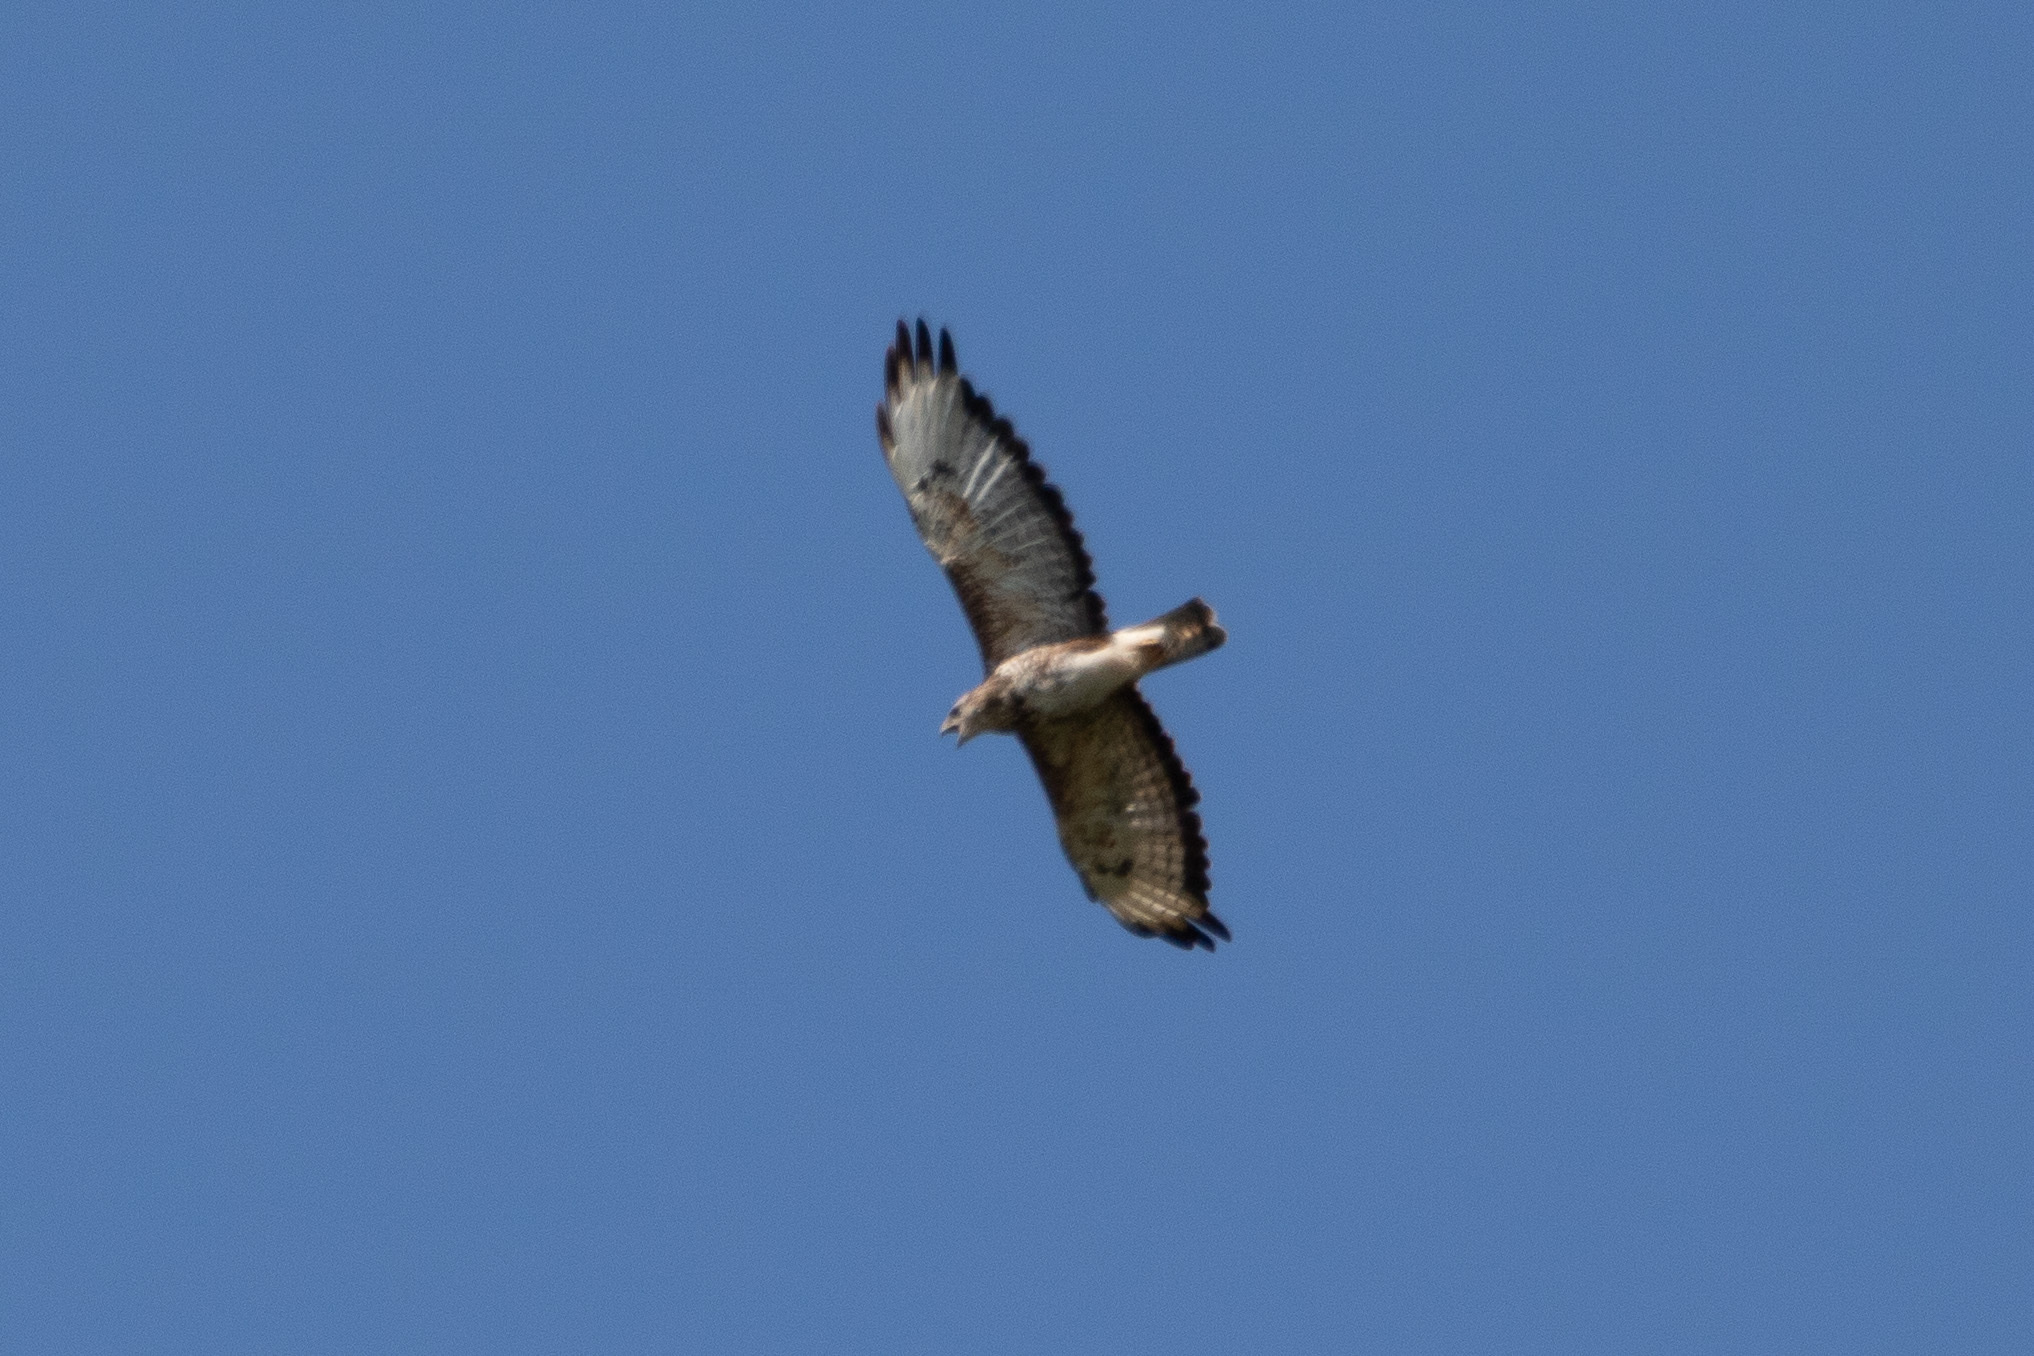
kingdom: Animalia
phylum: Chordata
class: Aves
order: Accipitriformes
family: Accipitridae
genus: Buteo
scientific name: Buteo buteo
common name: Common buzzard
